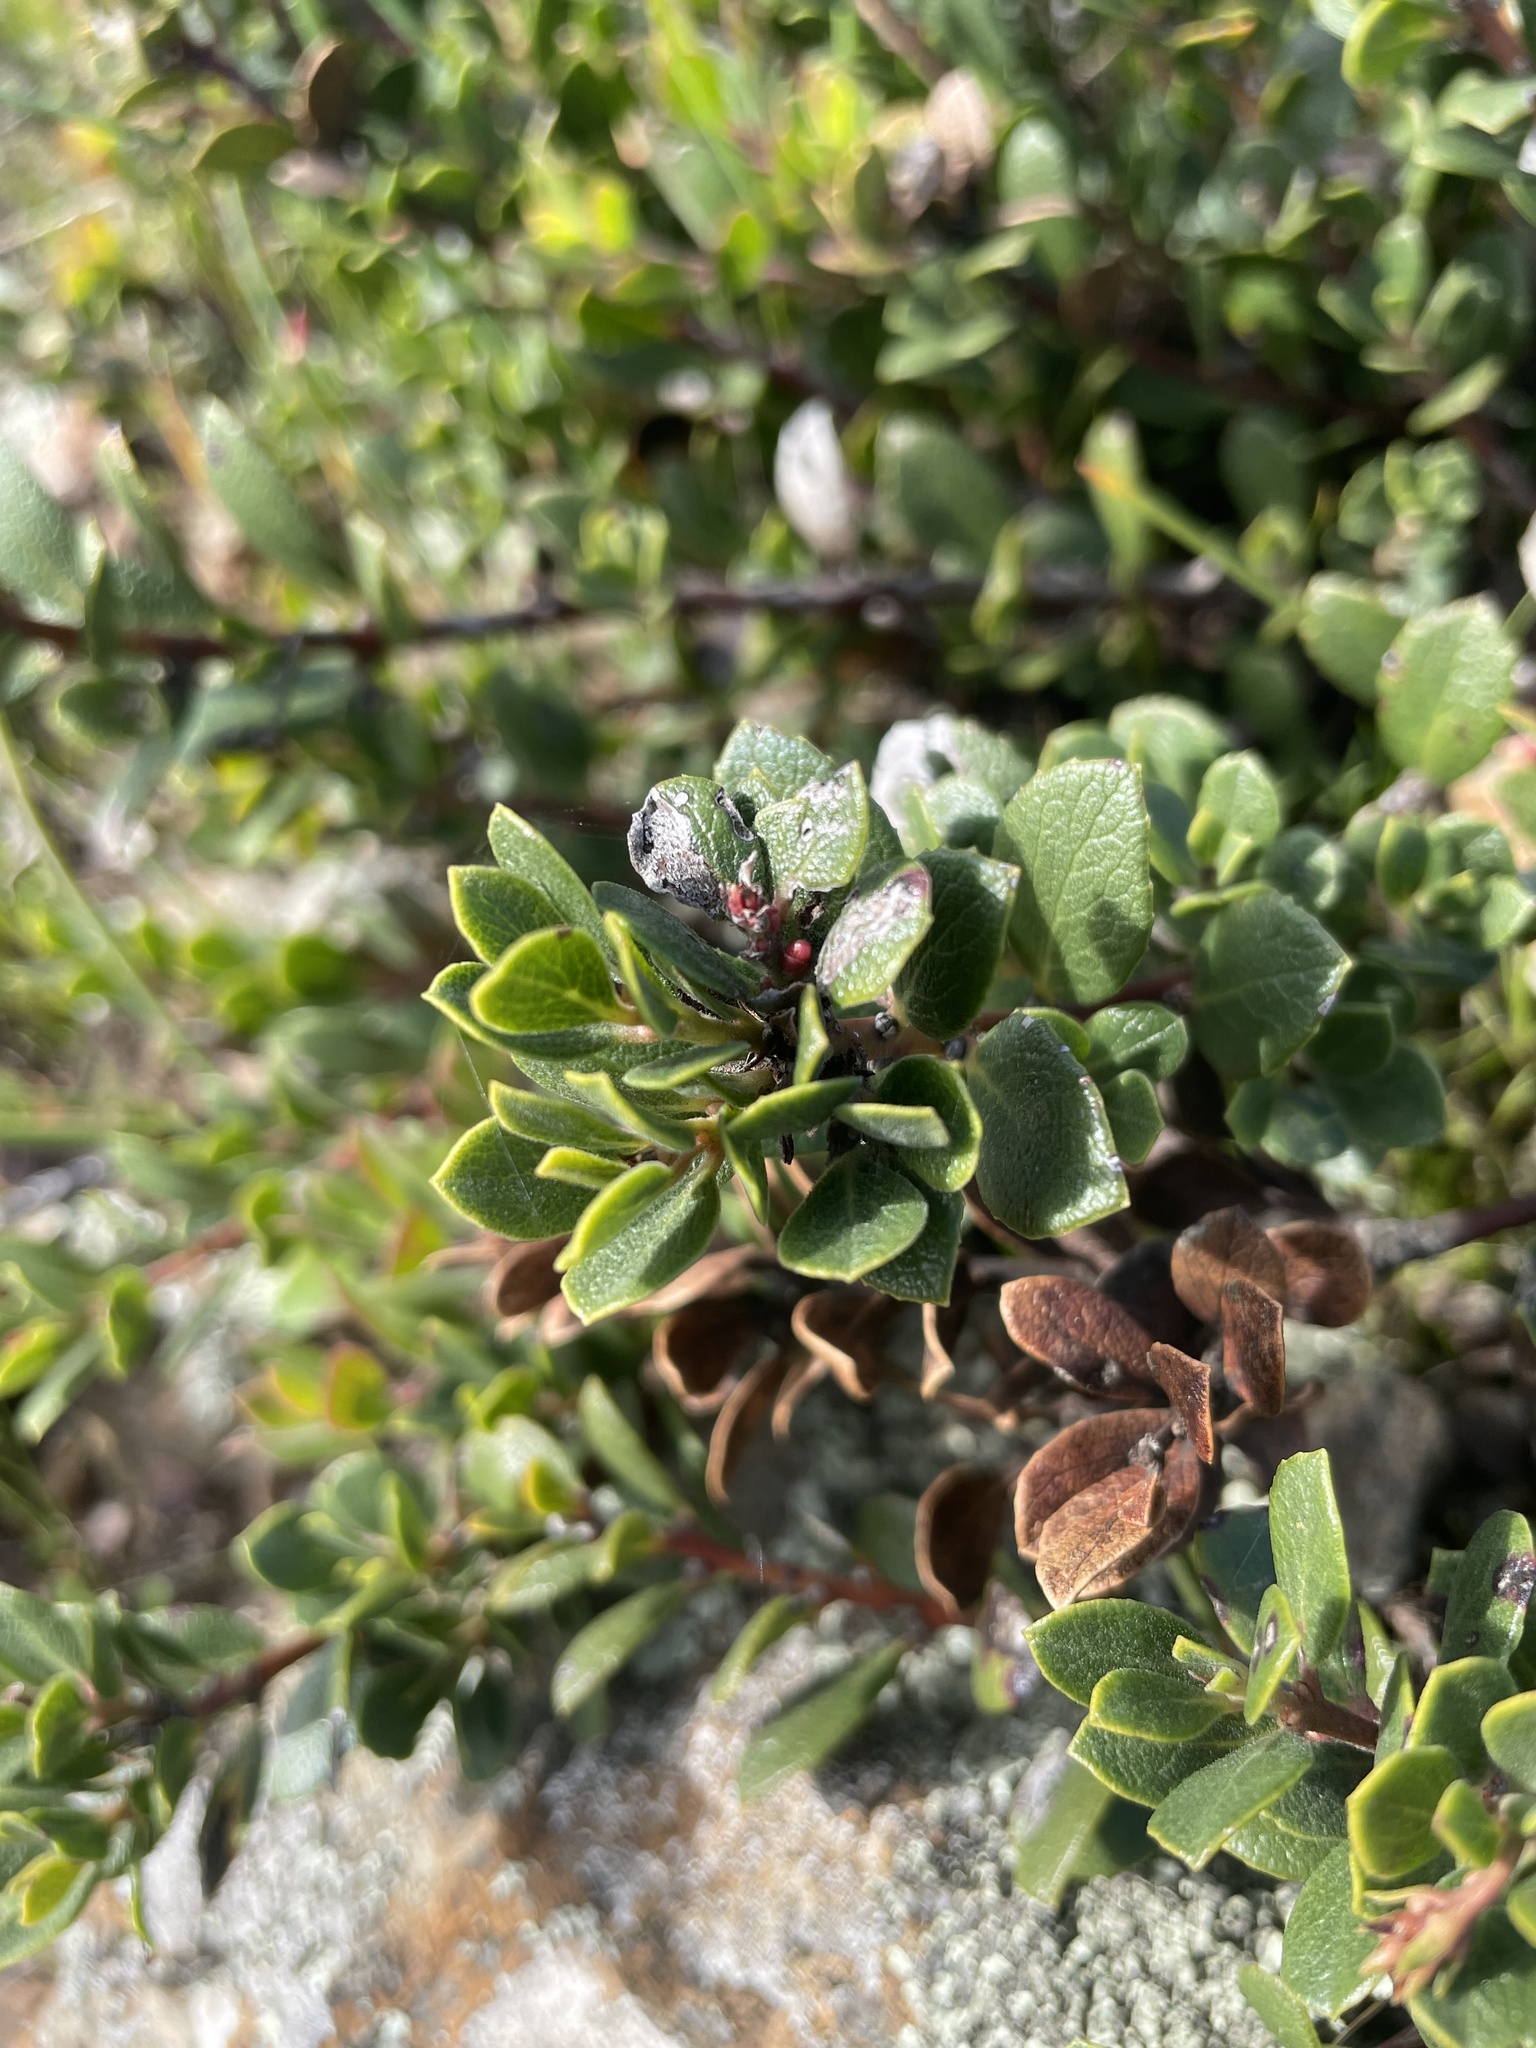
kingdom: Plantae
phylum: Tracheophyta
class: Magnoliopsida
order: Ericales
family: Ericaceae
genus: Arctostaphylos
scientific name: Arctostaphylos pacifica
